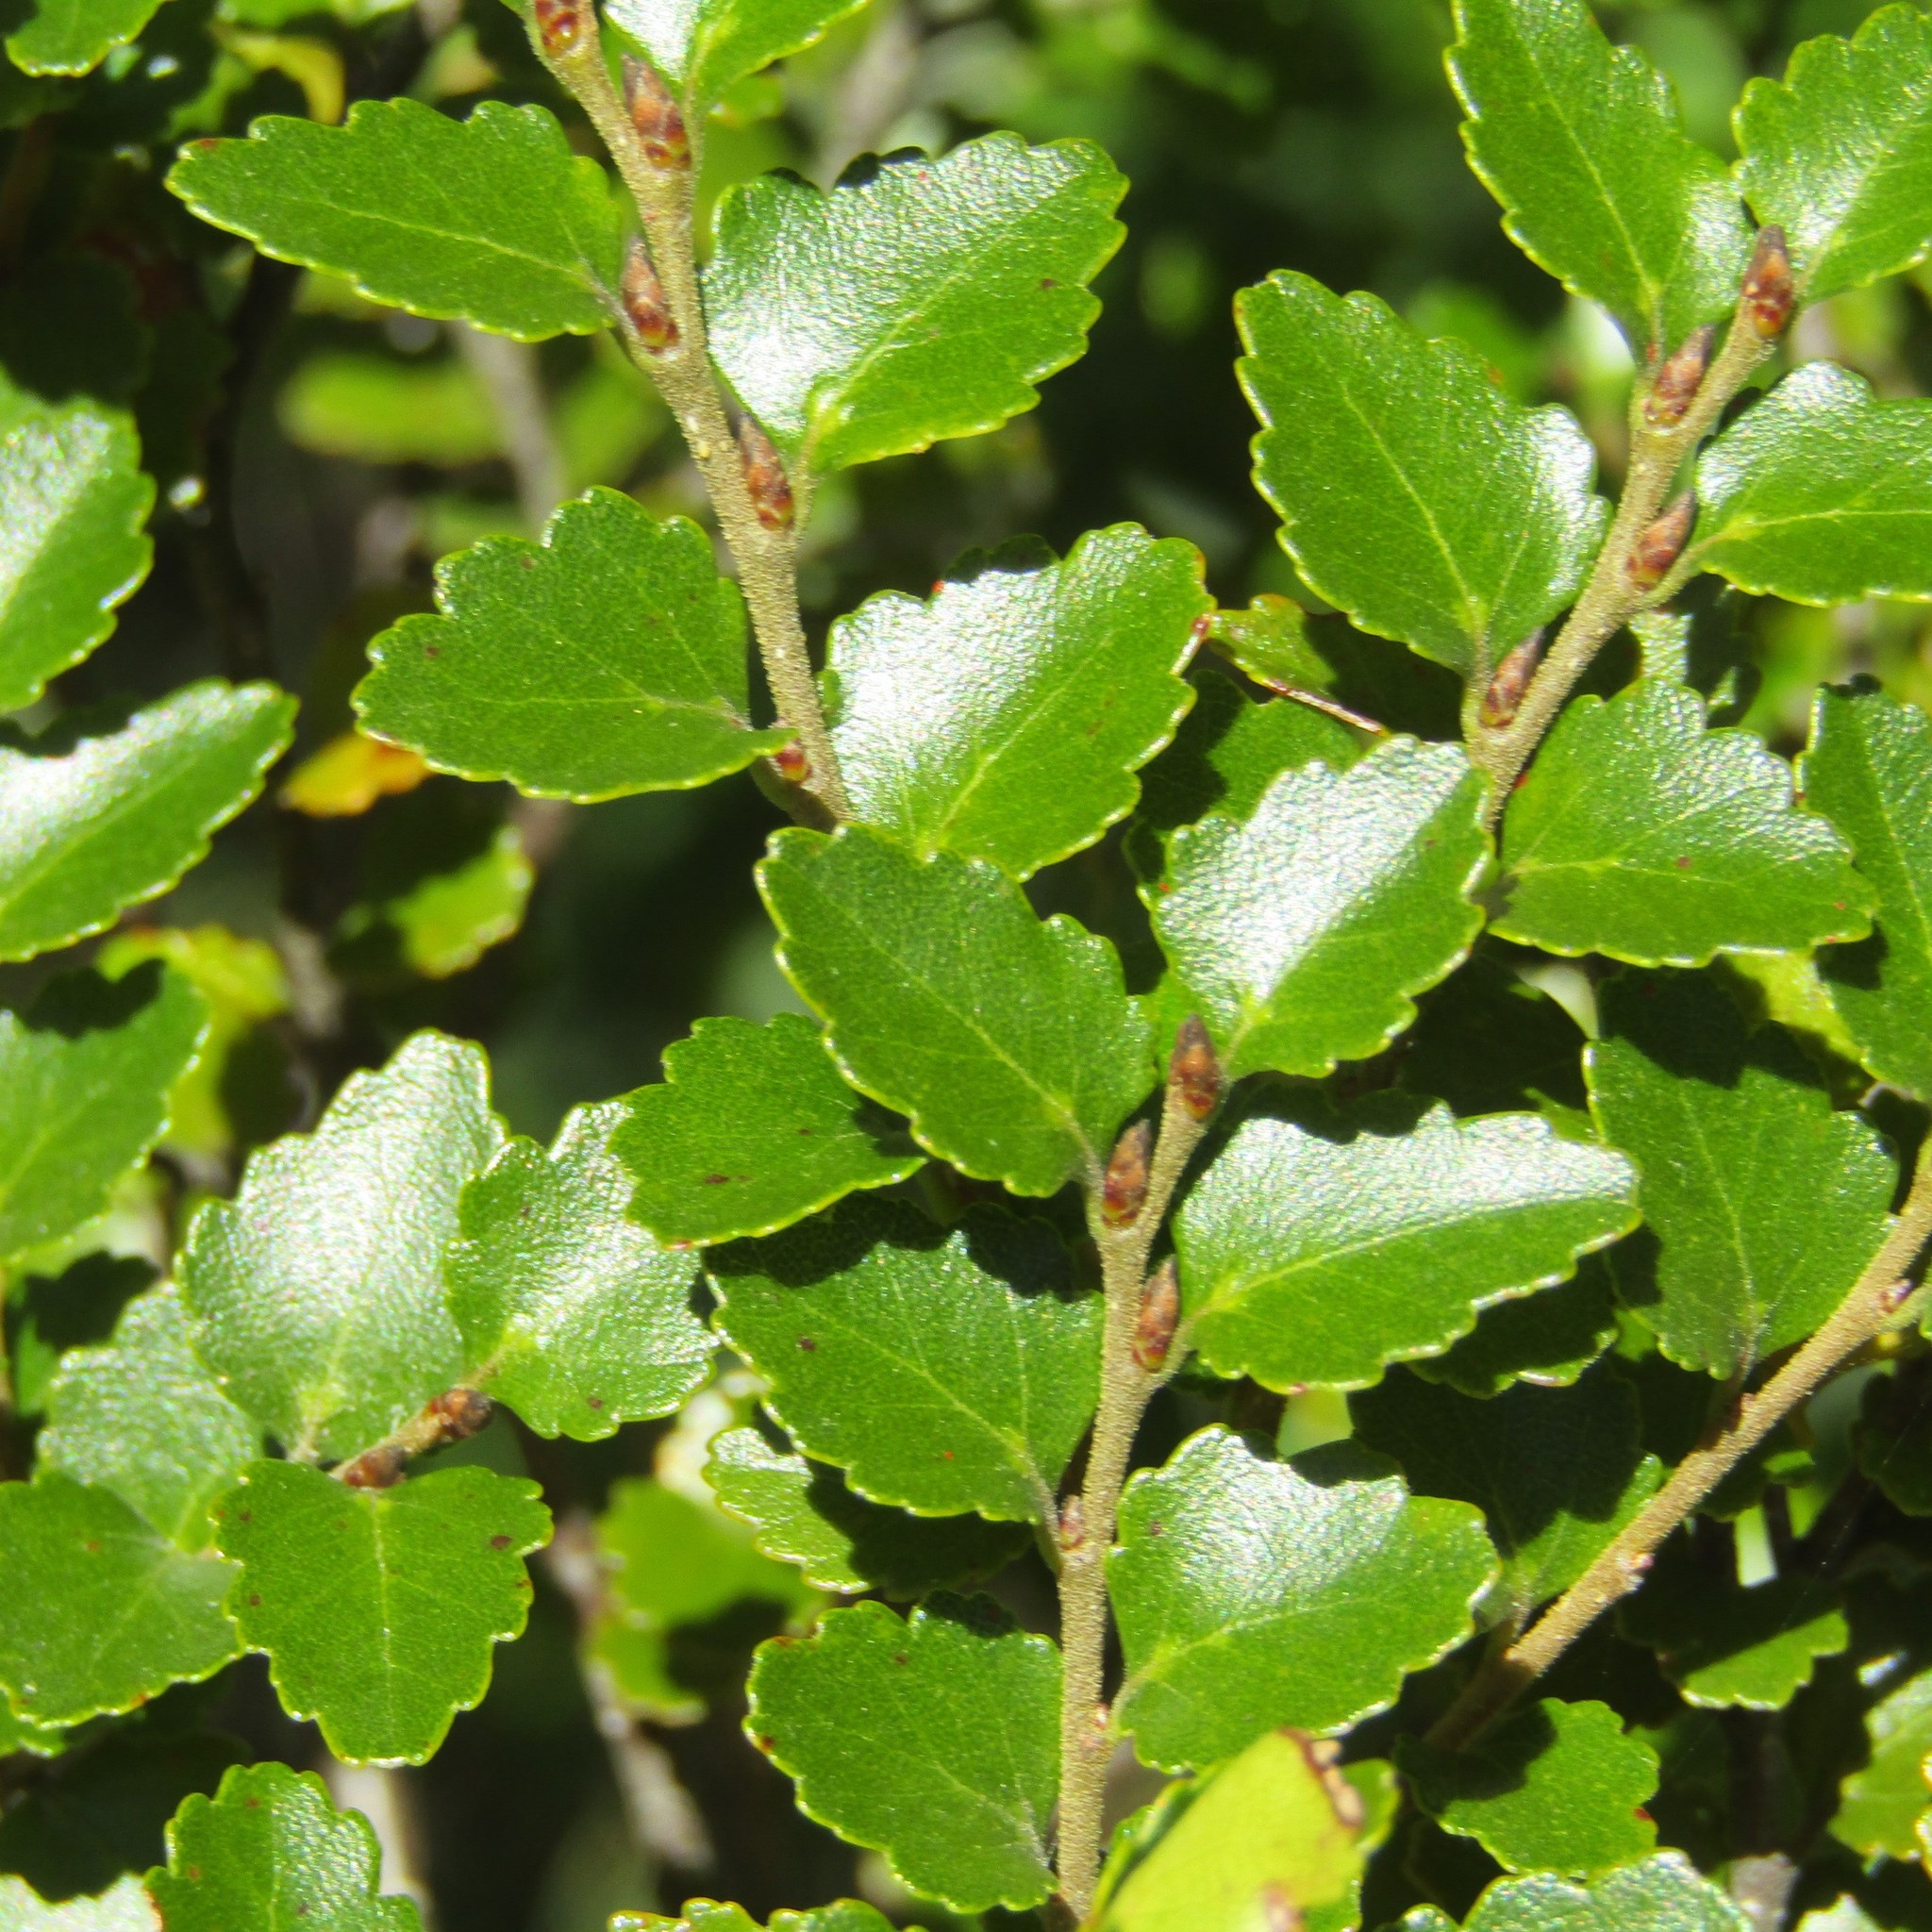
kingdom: Plantae
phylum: Tracheophyta
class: Magnoliopsida
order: Fagales
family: Nothofagaceae
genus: Nothofagus
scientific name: Nothofagus menziesii
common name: Silver beech
